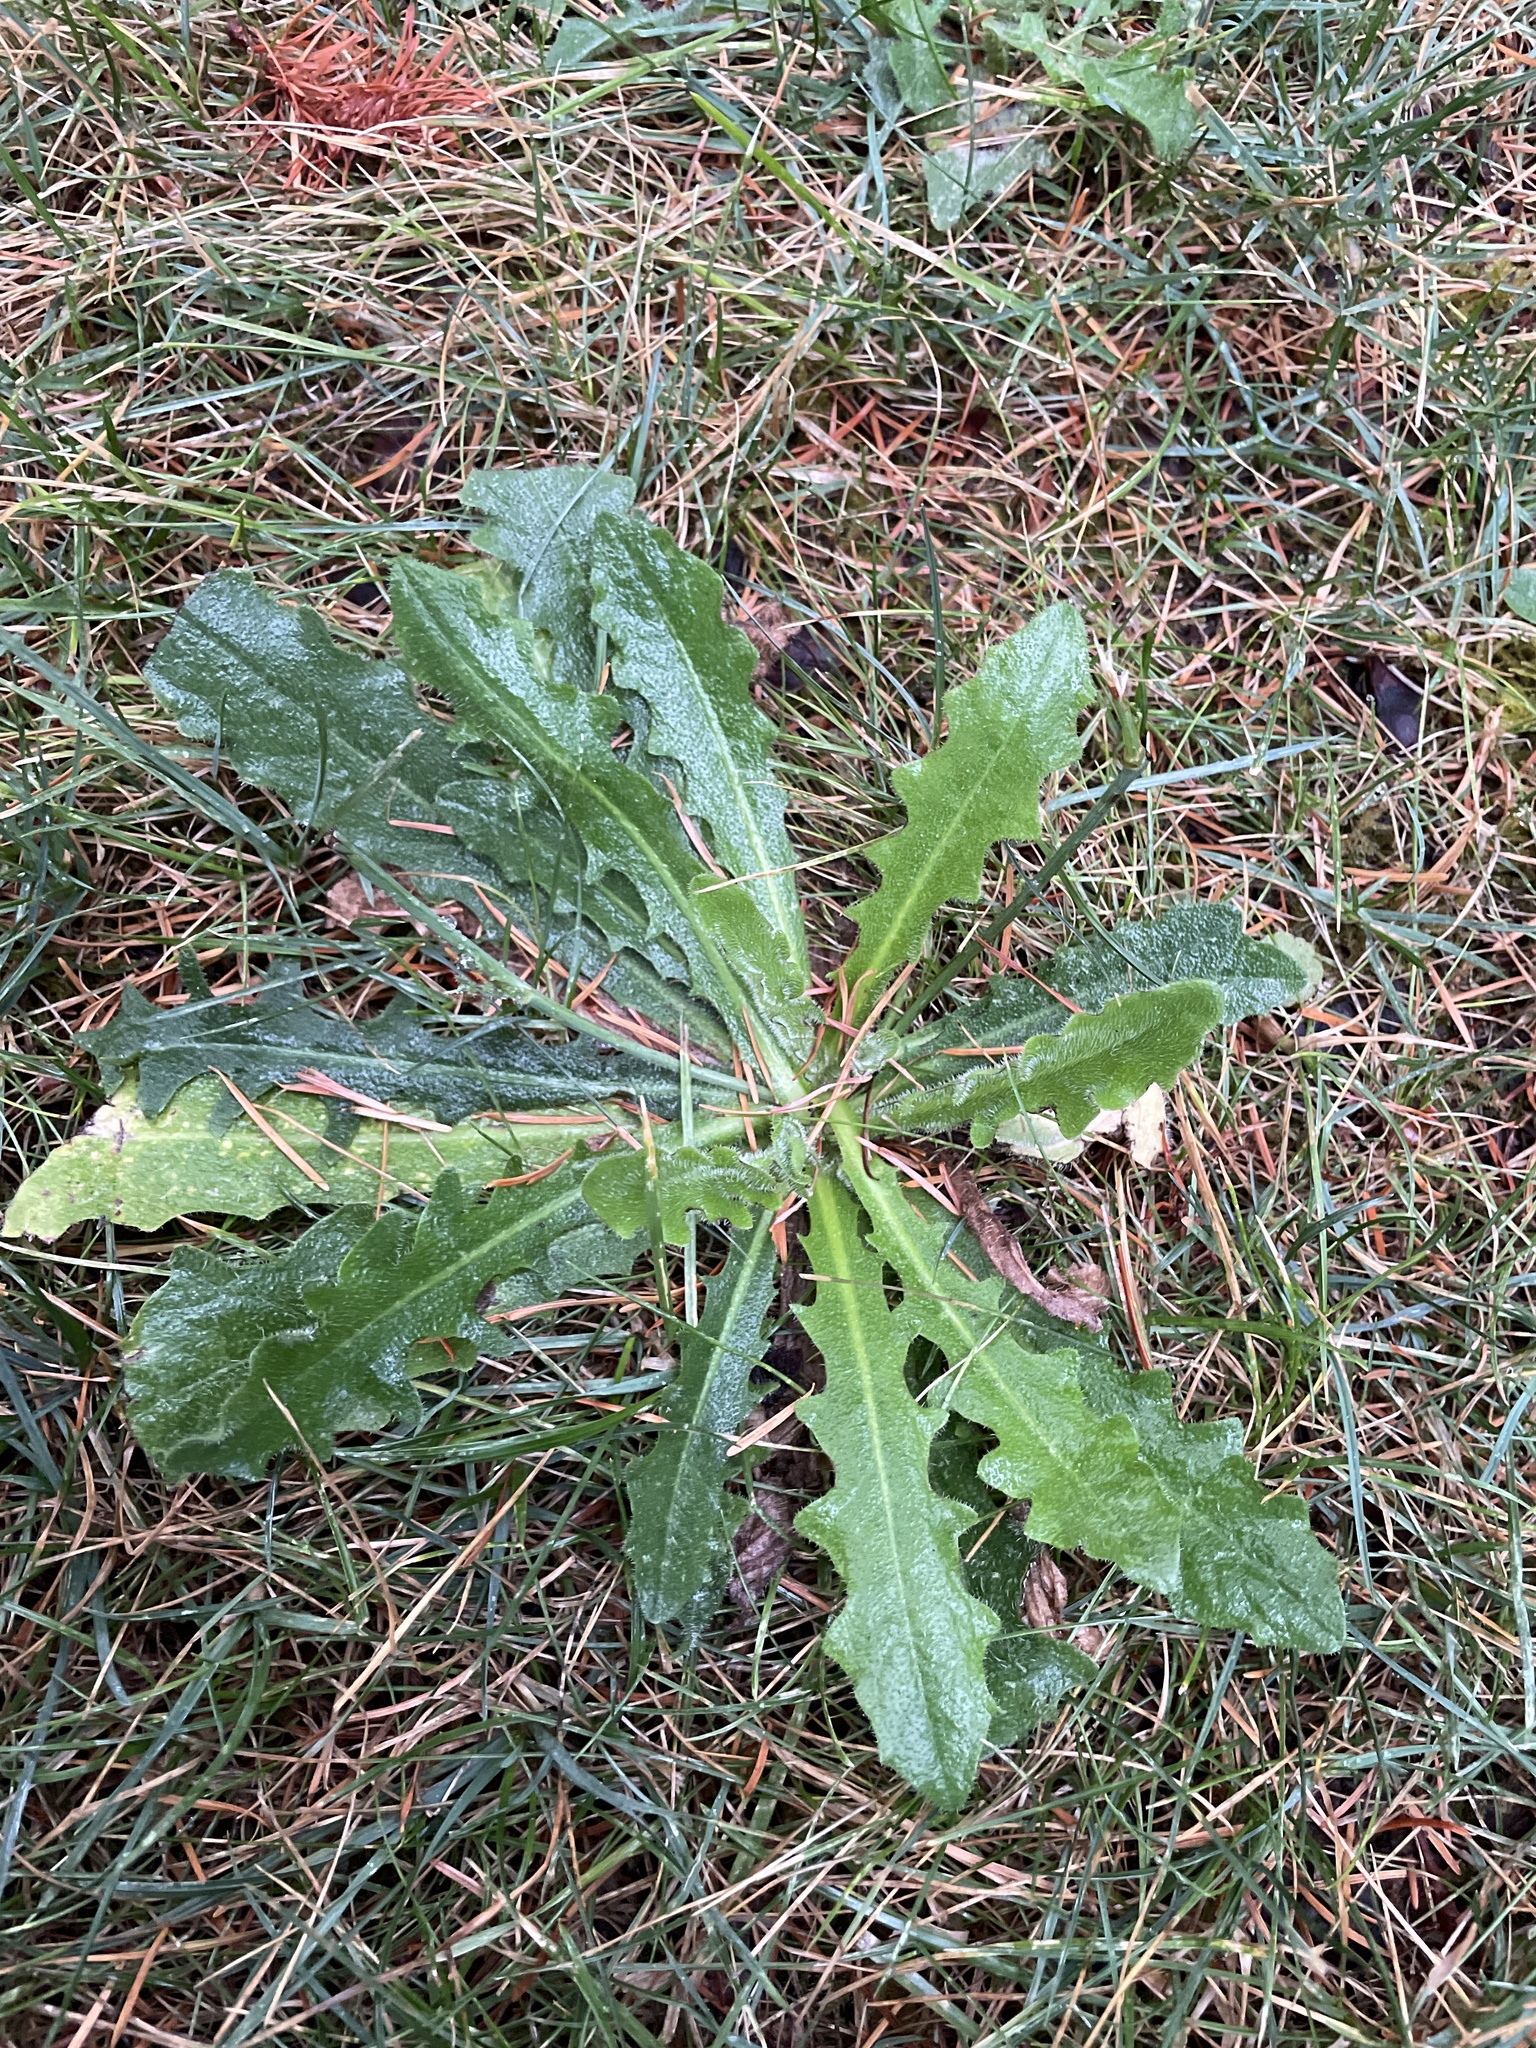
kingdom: Plantae
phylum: Tracheophyta
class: Magnoliopsida
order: Asterales
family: Asteraceae
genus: Hypochaeris
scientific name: Hypochaeris radicata
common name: Flatweed
